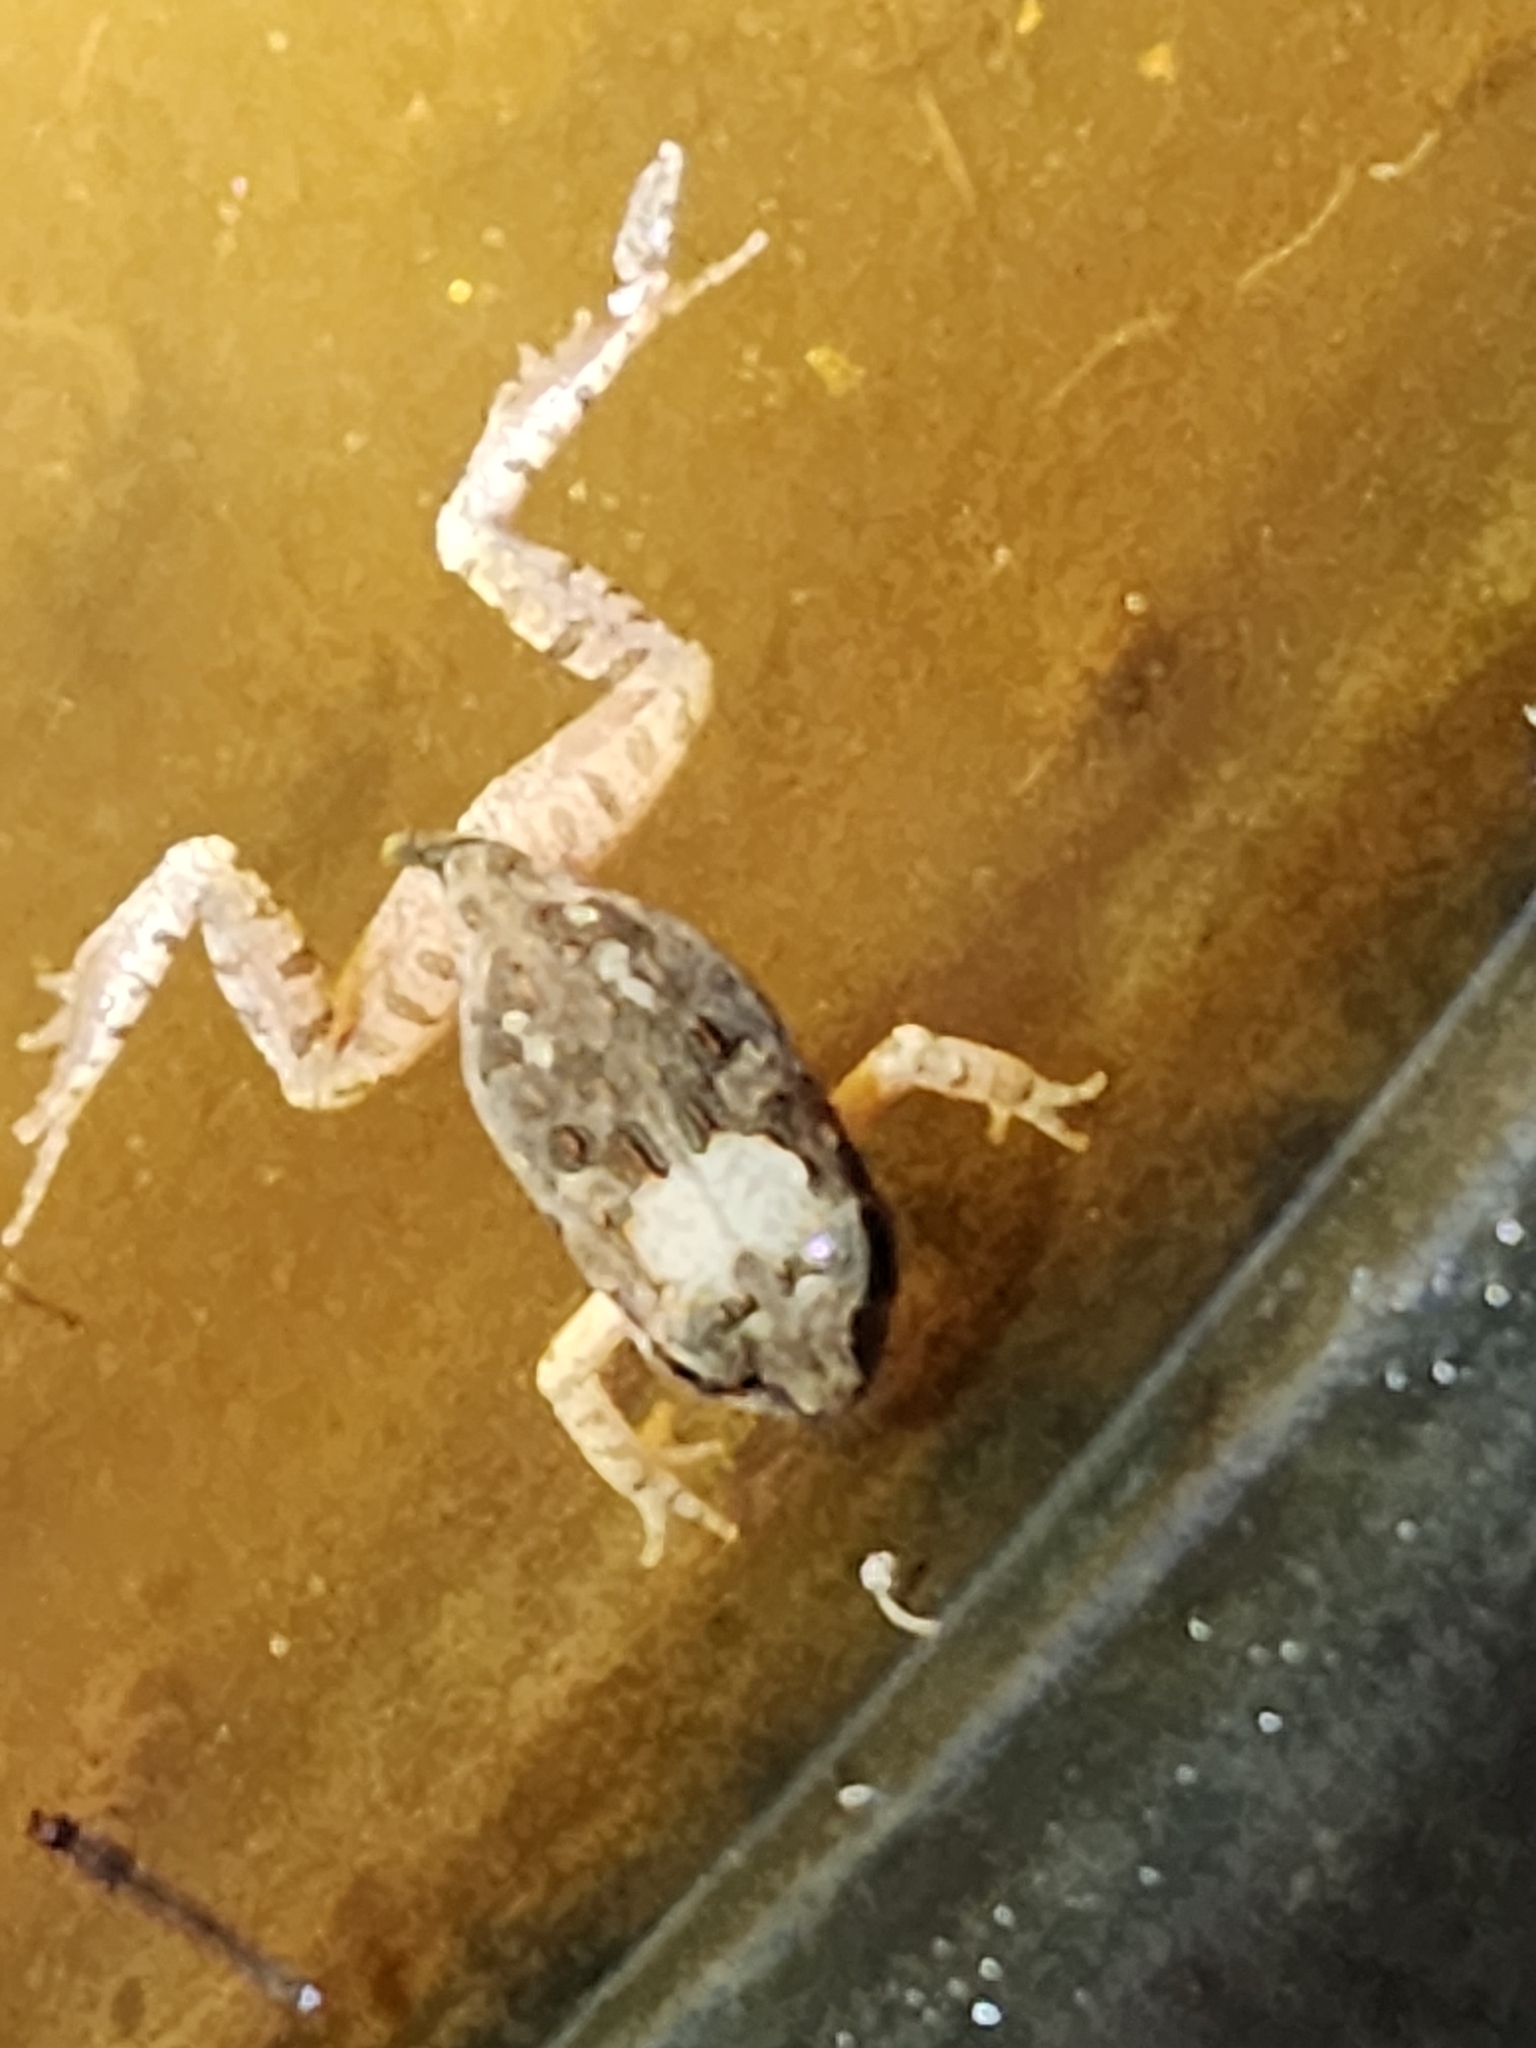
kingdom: Animalia
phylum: Chordata
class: Amphibia
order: Anura
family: Limnodynastidae
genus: Platyplectrum
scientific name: Platyplectrum ornatum
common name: Ornate burrowing frog
